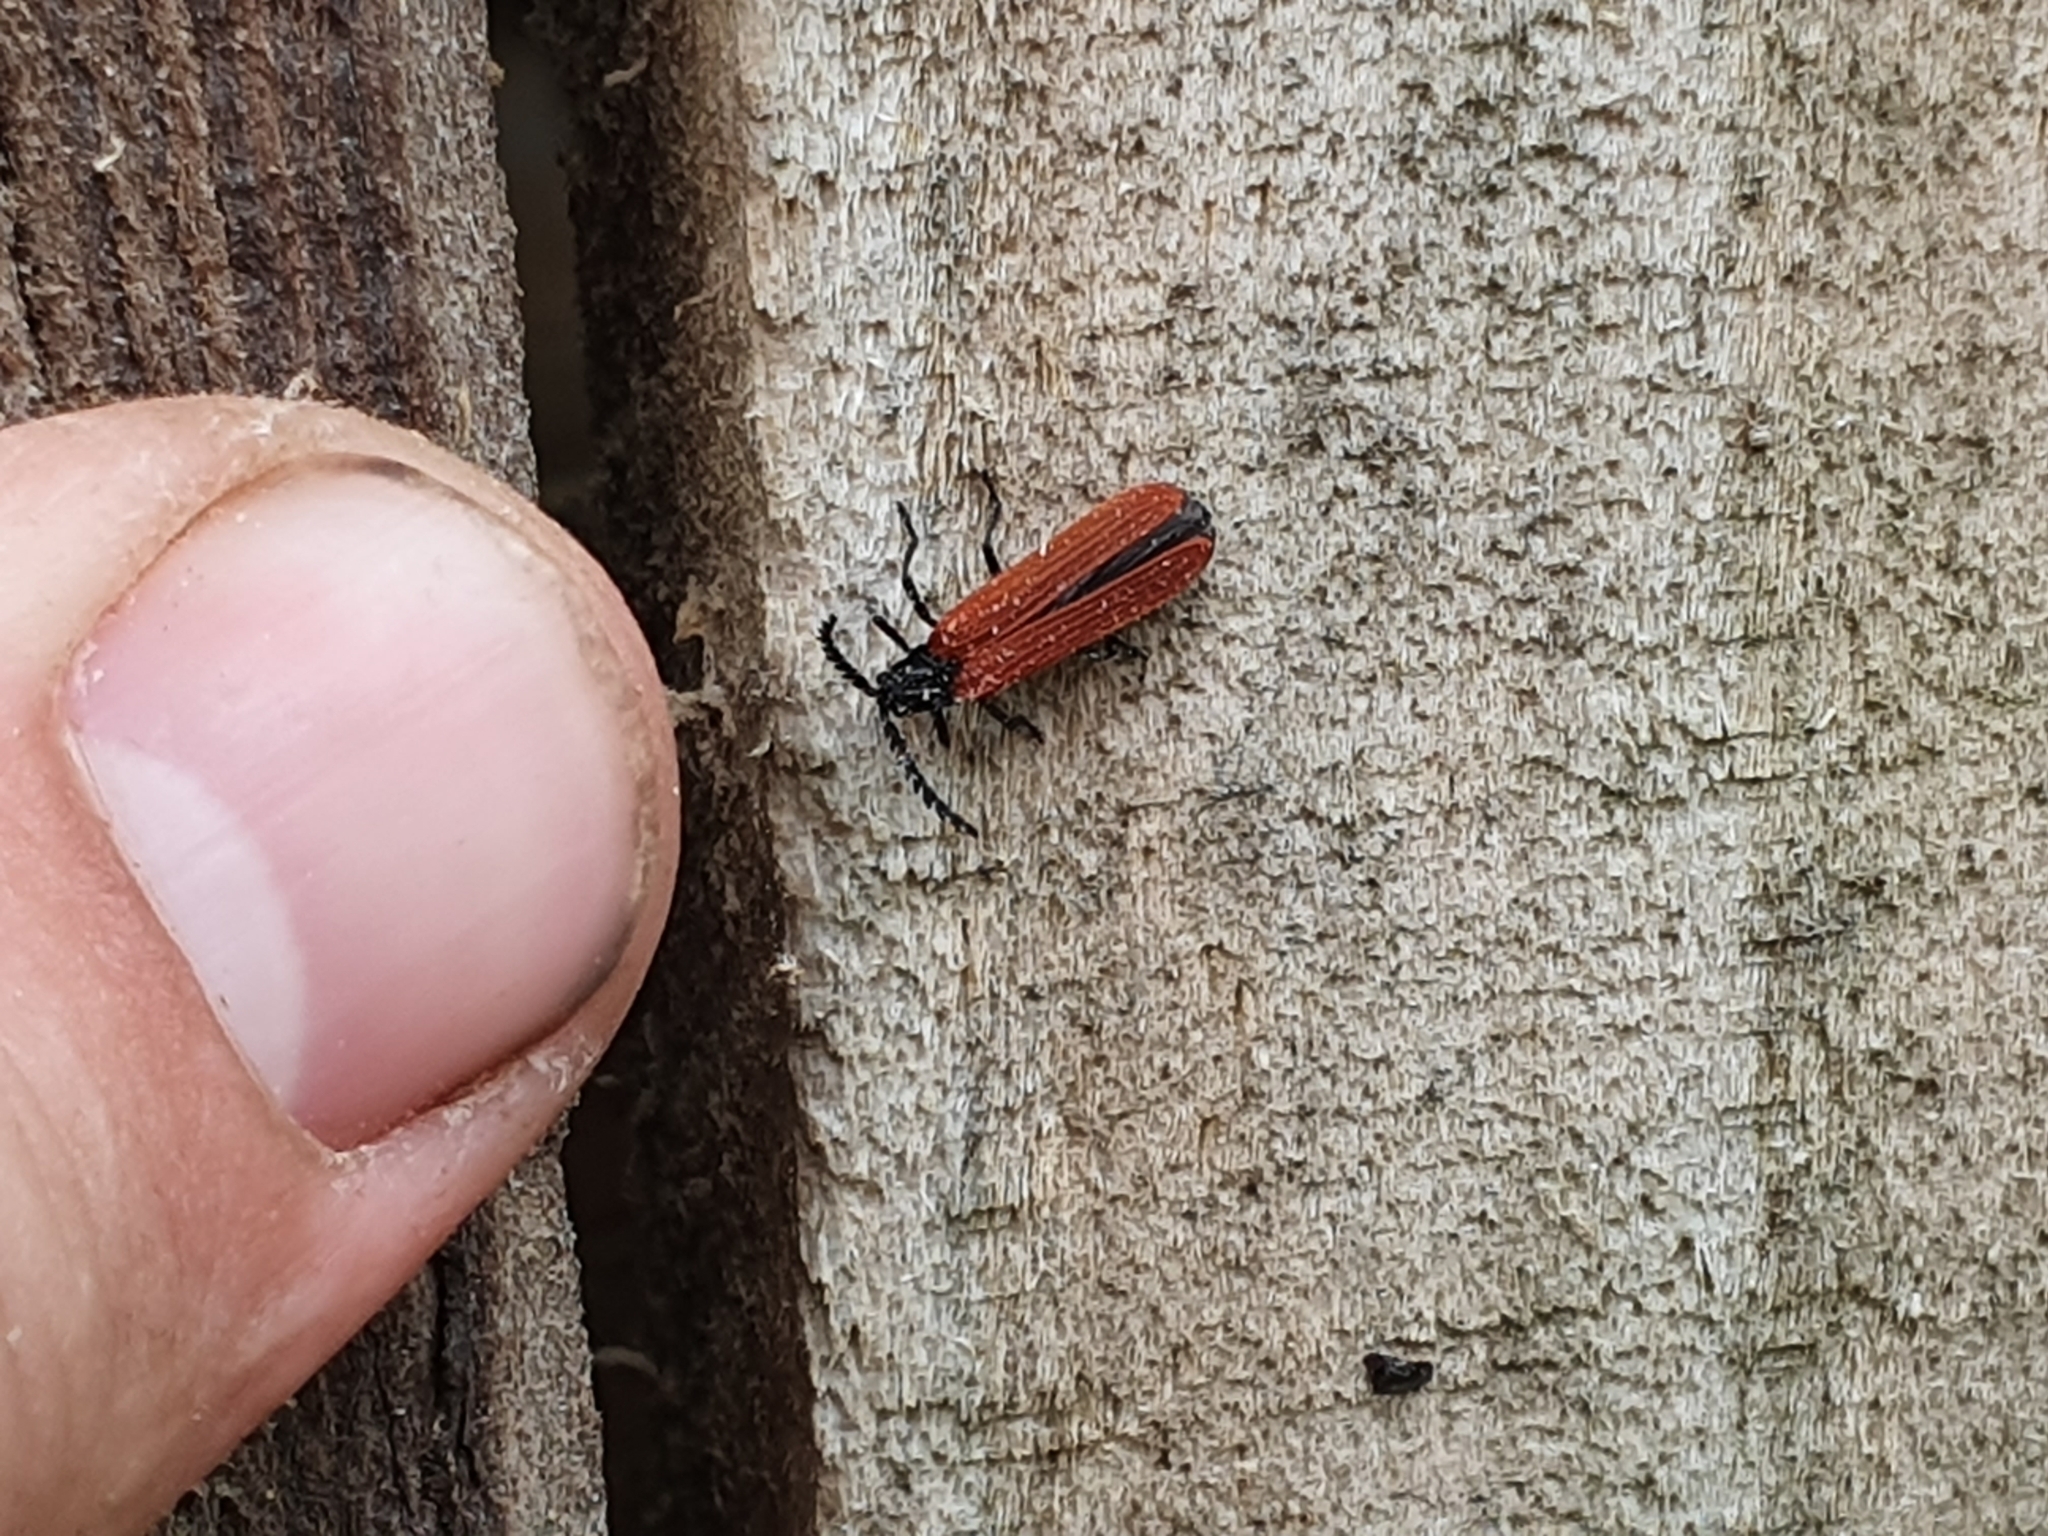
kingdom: Animalia
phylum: Arthropoda
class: Insecta
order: Coleoptera
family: Lycidae
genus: Porrostoma
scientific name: Porrostoma rufipenne
